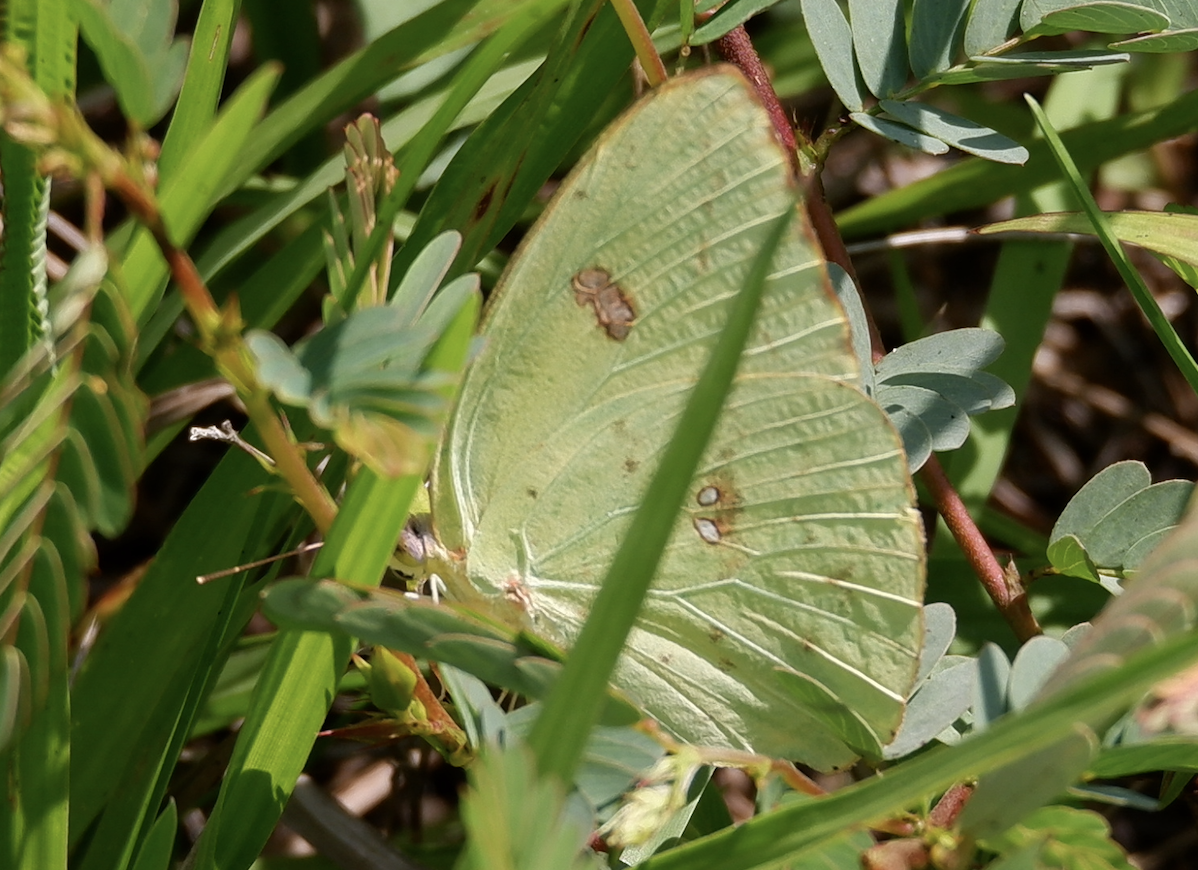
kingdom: Animalia
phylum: Arthropoda
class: Insecta
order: Lepidoptera
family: Pieridae
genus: Phoebis
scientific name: Phoebis sennae
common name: Cloudless sulphur
